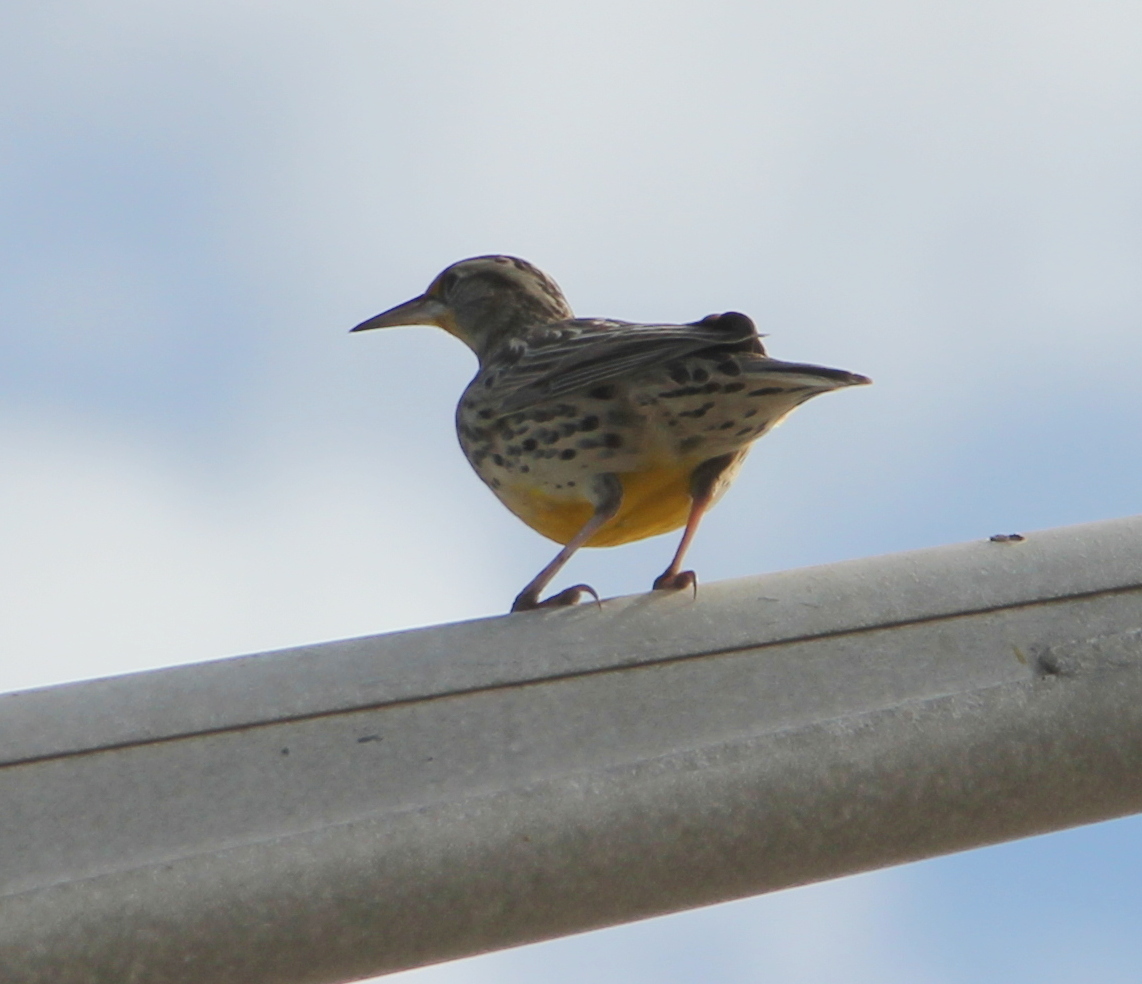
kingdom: Animalia
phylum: Chordata
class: Aves
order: Passeriformes
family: Icteridae
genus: Sturnella
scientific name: Sturnella neglecta
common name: Western meadowlark
